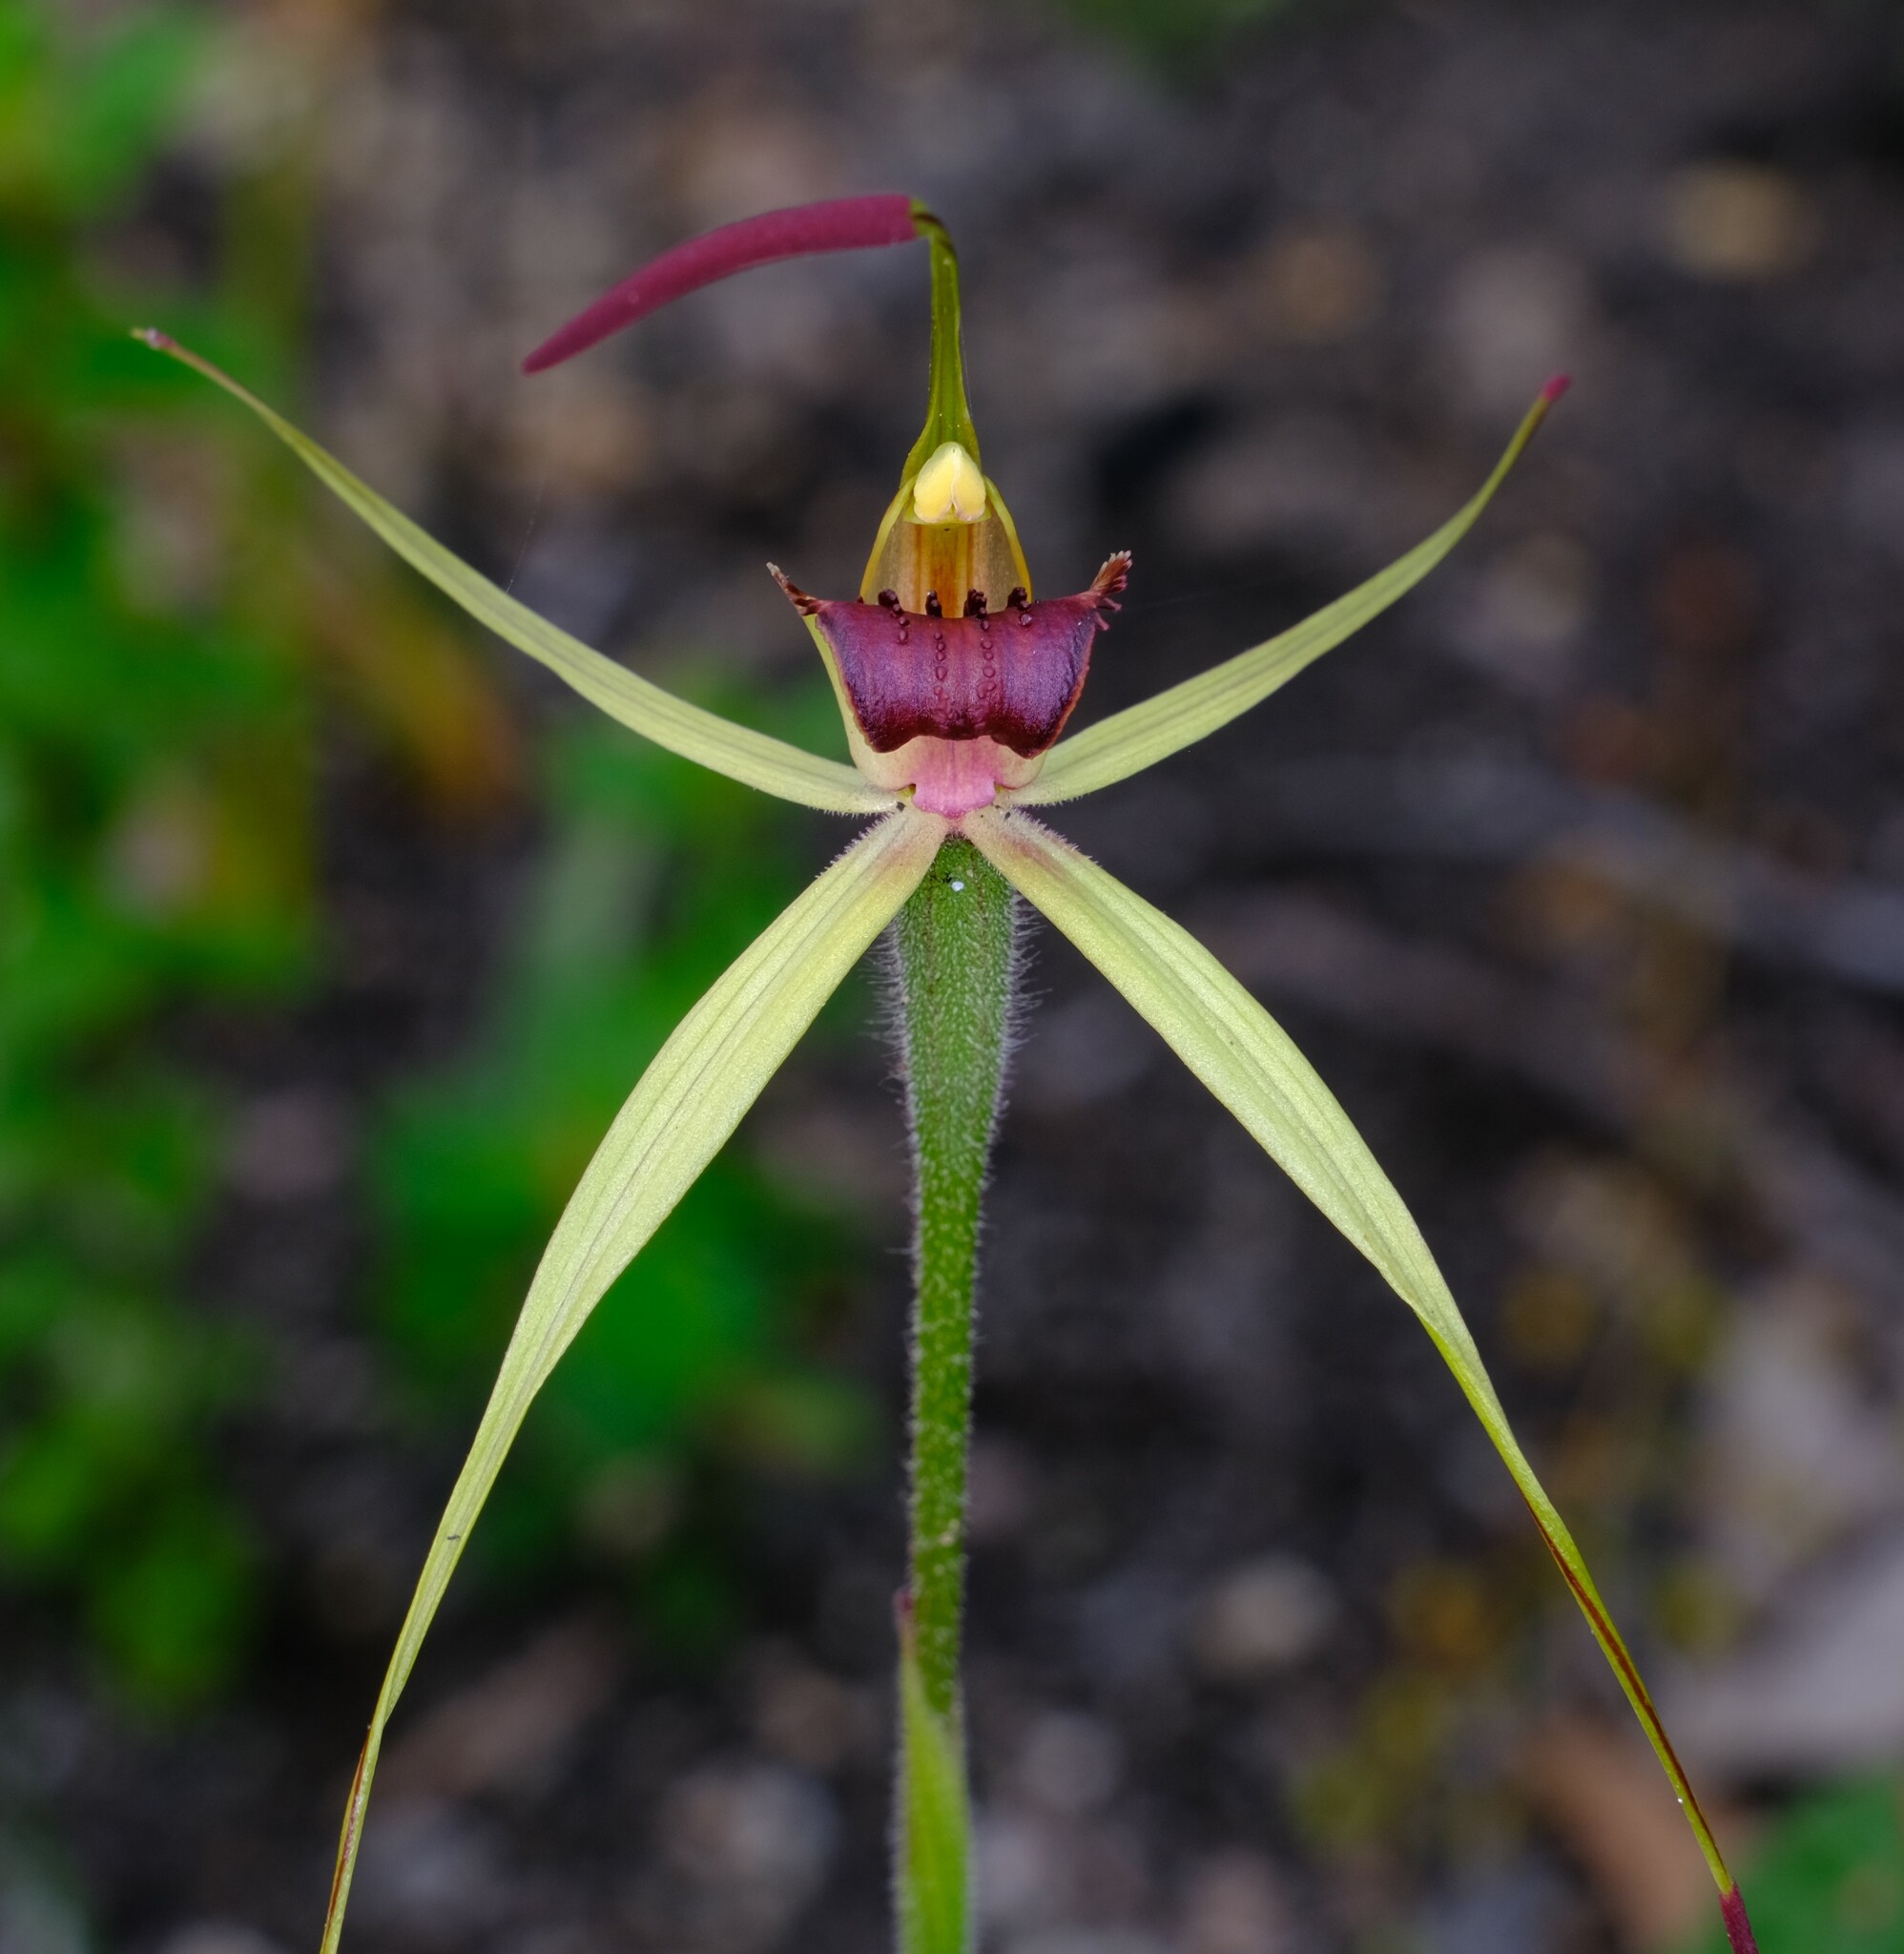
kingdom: Plantae
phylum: Tracheophyta
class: Liliopsida
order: Asparagales
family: Orchidaceae
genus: Caladenia
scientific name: Caladenia australis
